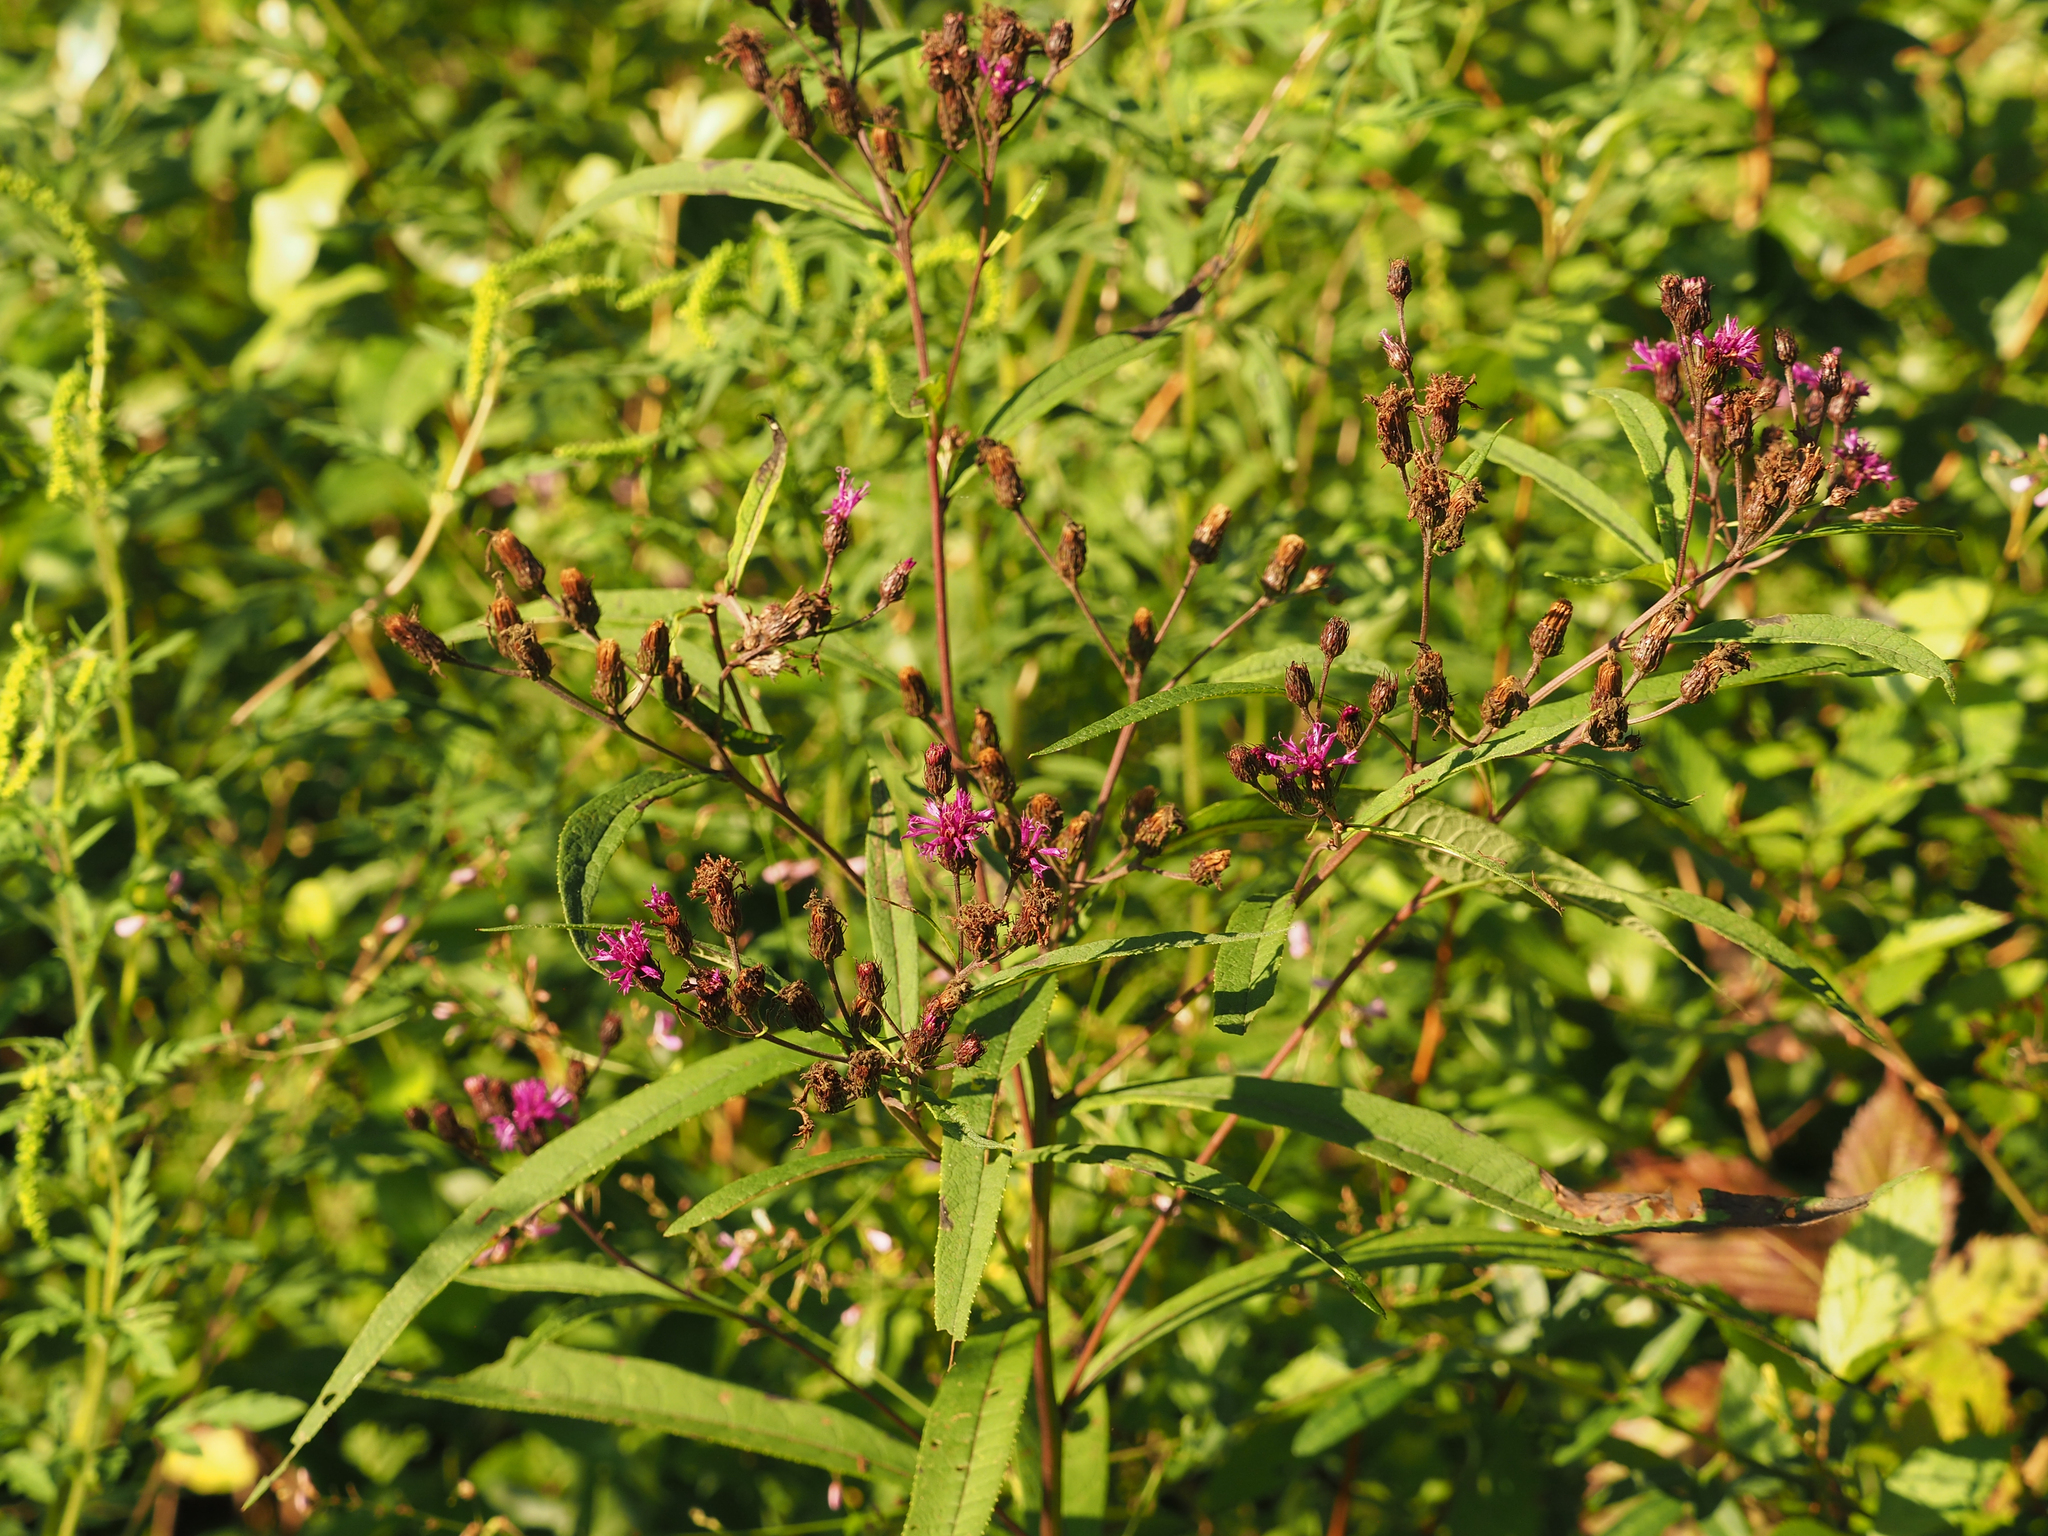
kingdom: Plantae
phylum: Tracheophyta
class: Magnoliopsida
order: Asterales
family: Asteraceae
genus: Vernonia
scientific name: Vernonia noveboracensis
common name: New york ironweed
